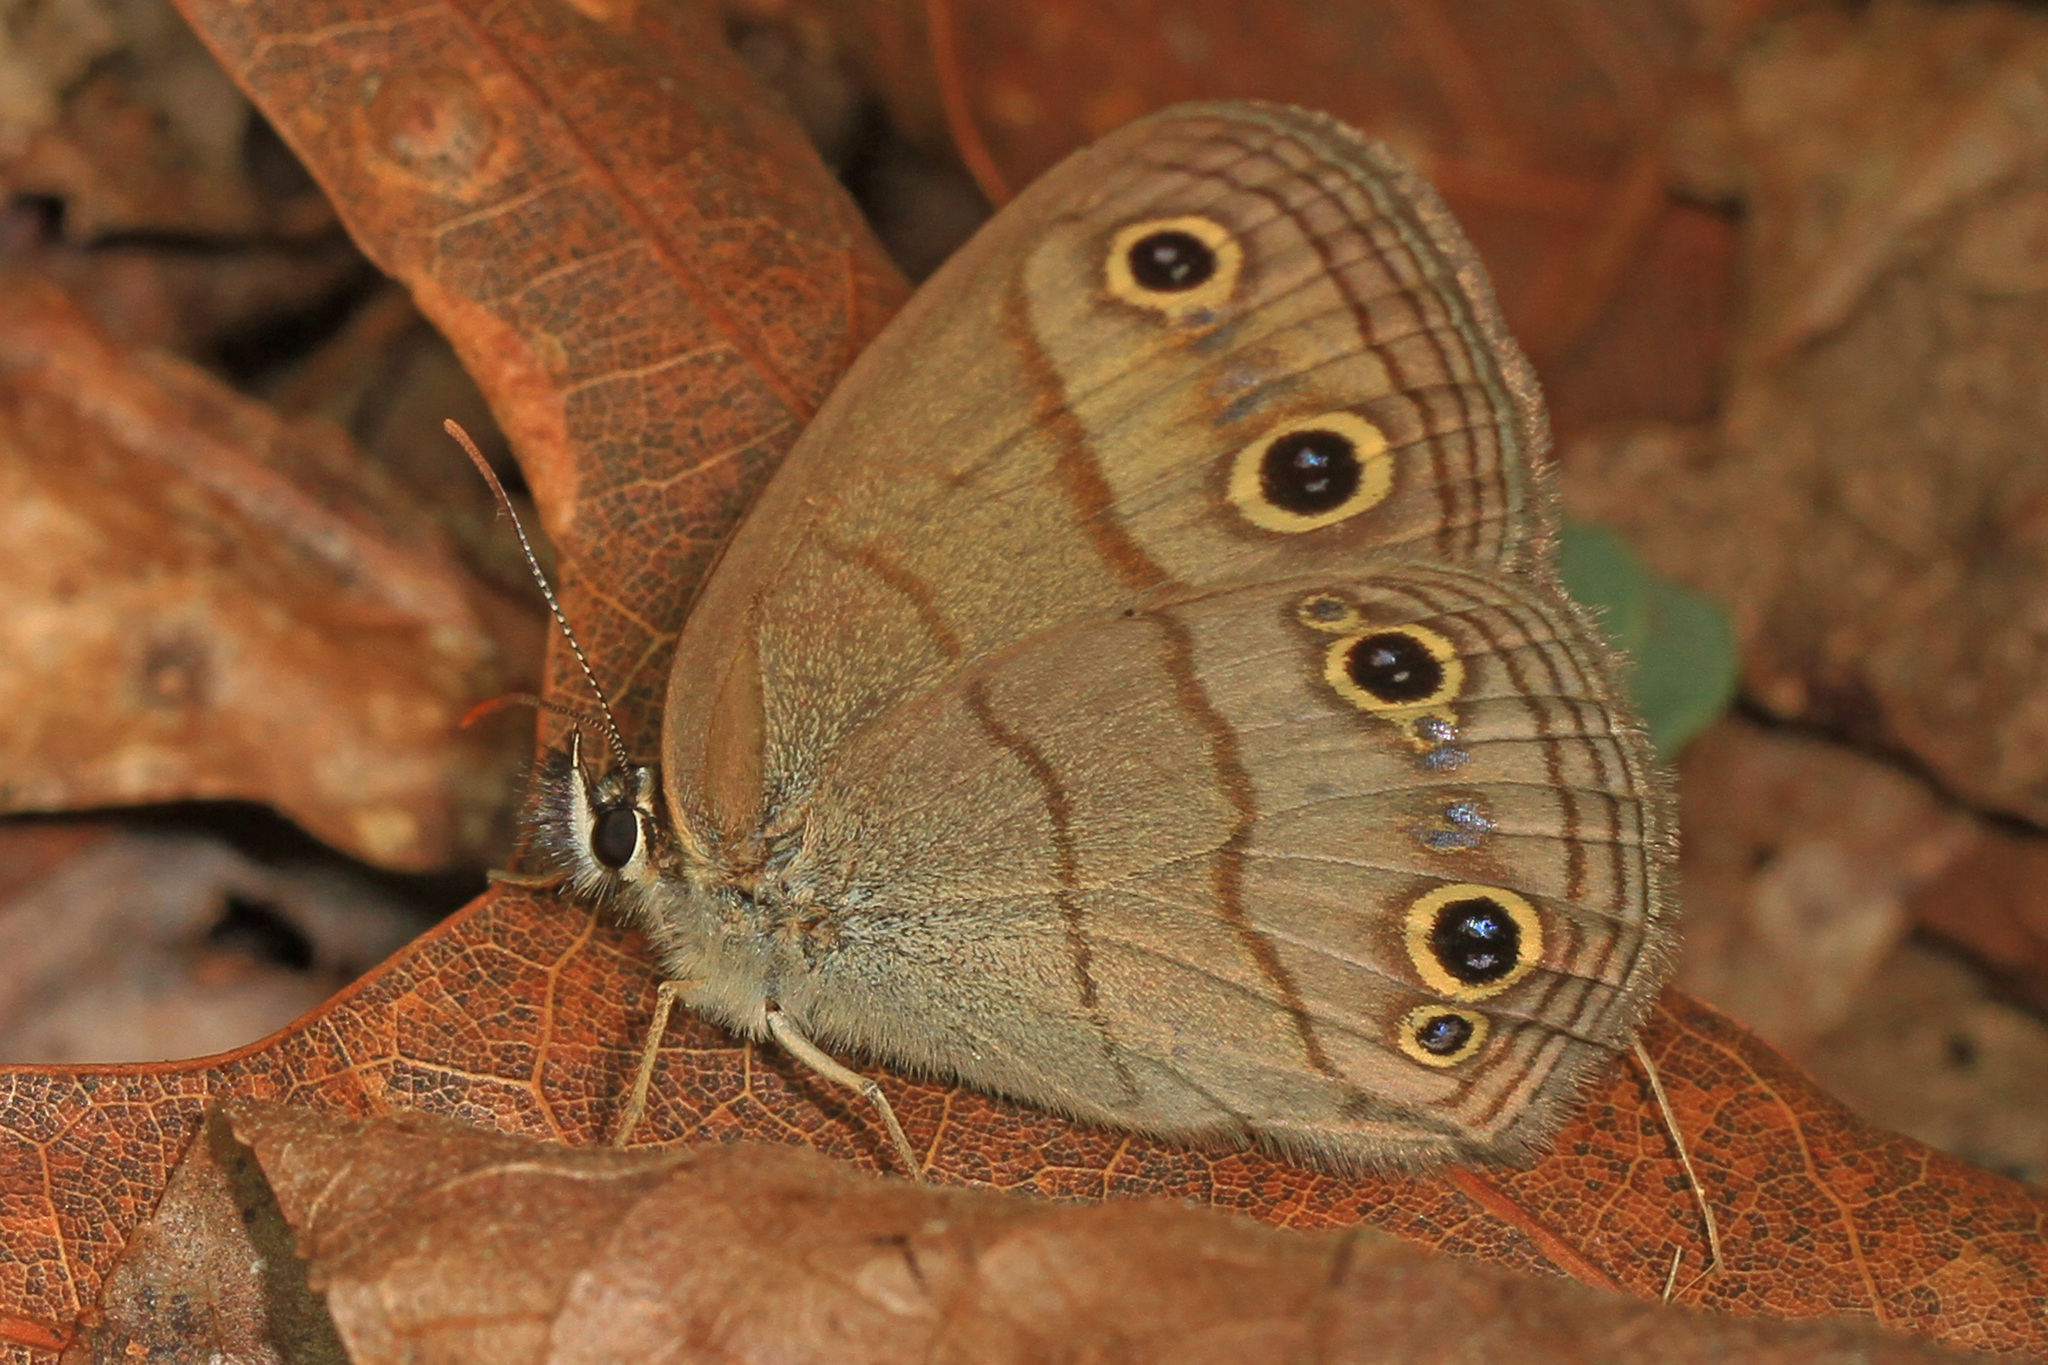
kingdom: Animalia
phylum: Arthropoda
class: Insecta
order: Lepidoptera
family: Nymphalidae
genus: Euptychia
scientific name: Euptychia cymela
